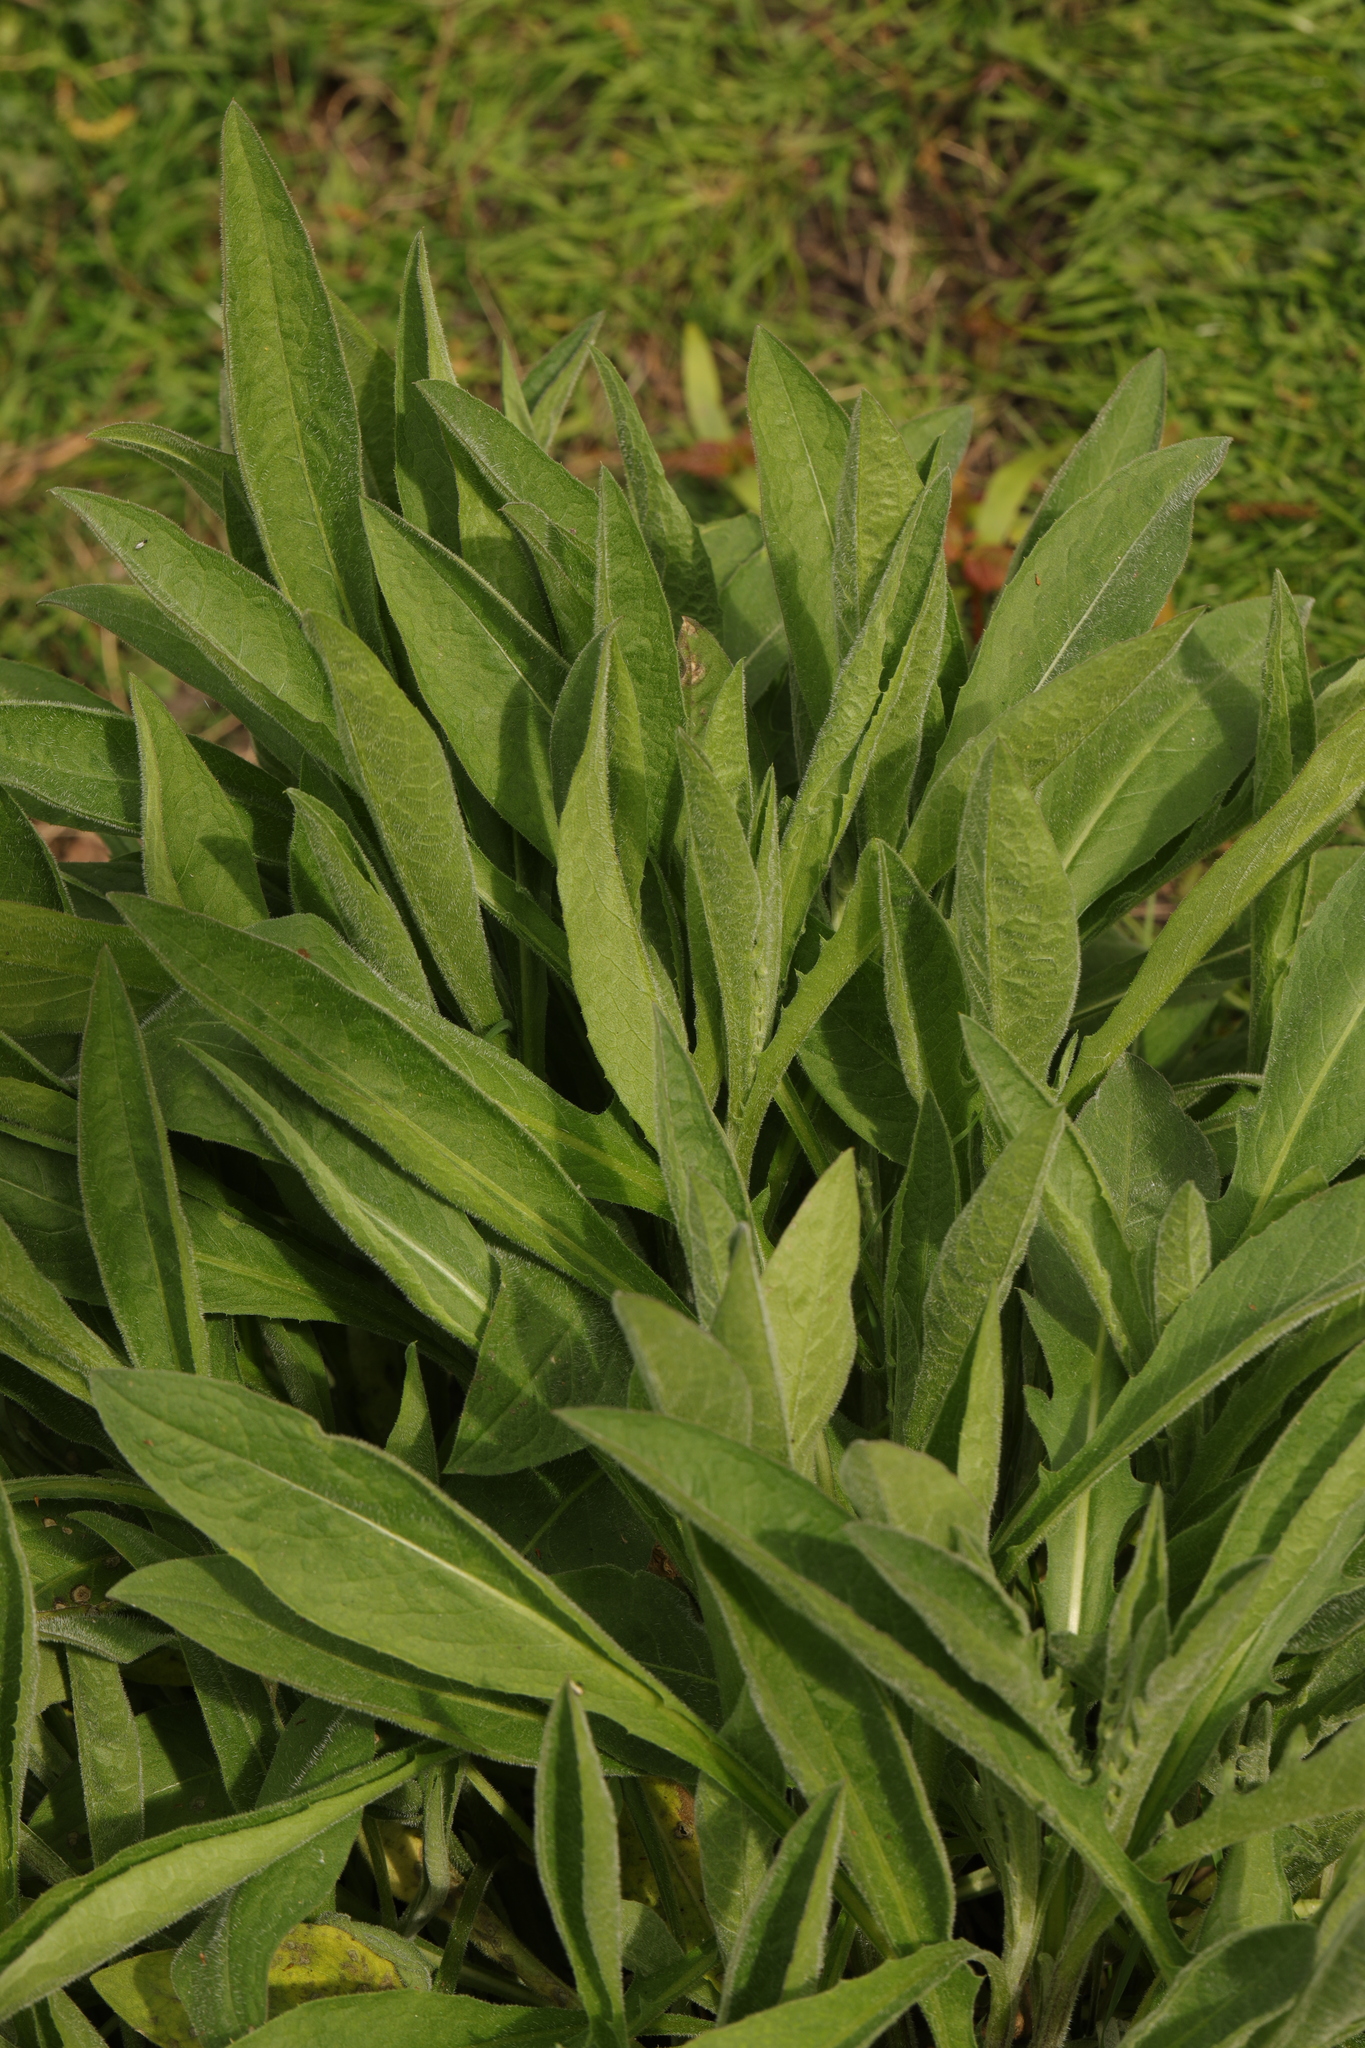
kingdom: Plantae
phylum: Tracheophyta
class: Magnoliopsida
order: Asterales
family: Asteraceae
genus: Centaurea
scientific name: Centaurea nigra
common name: Lesser knapweed
